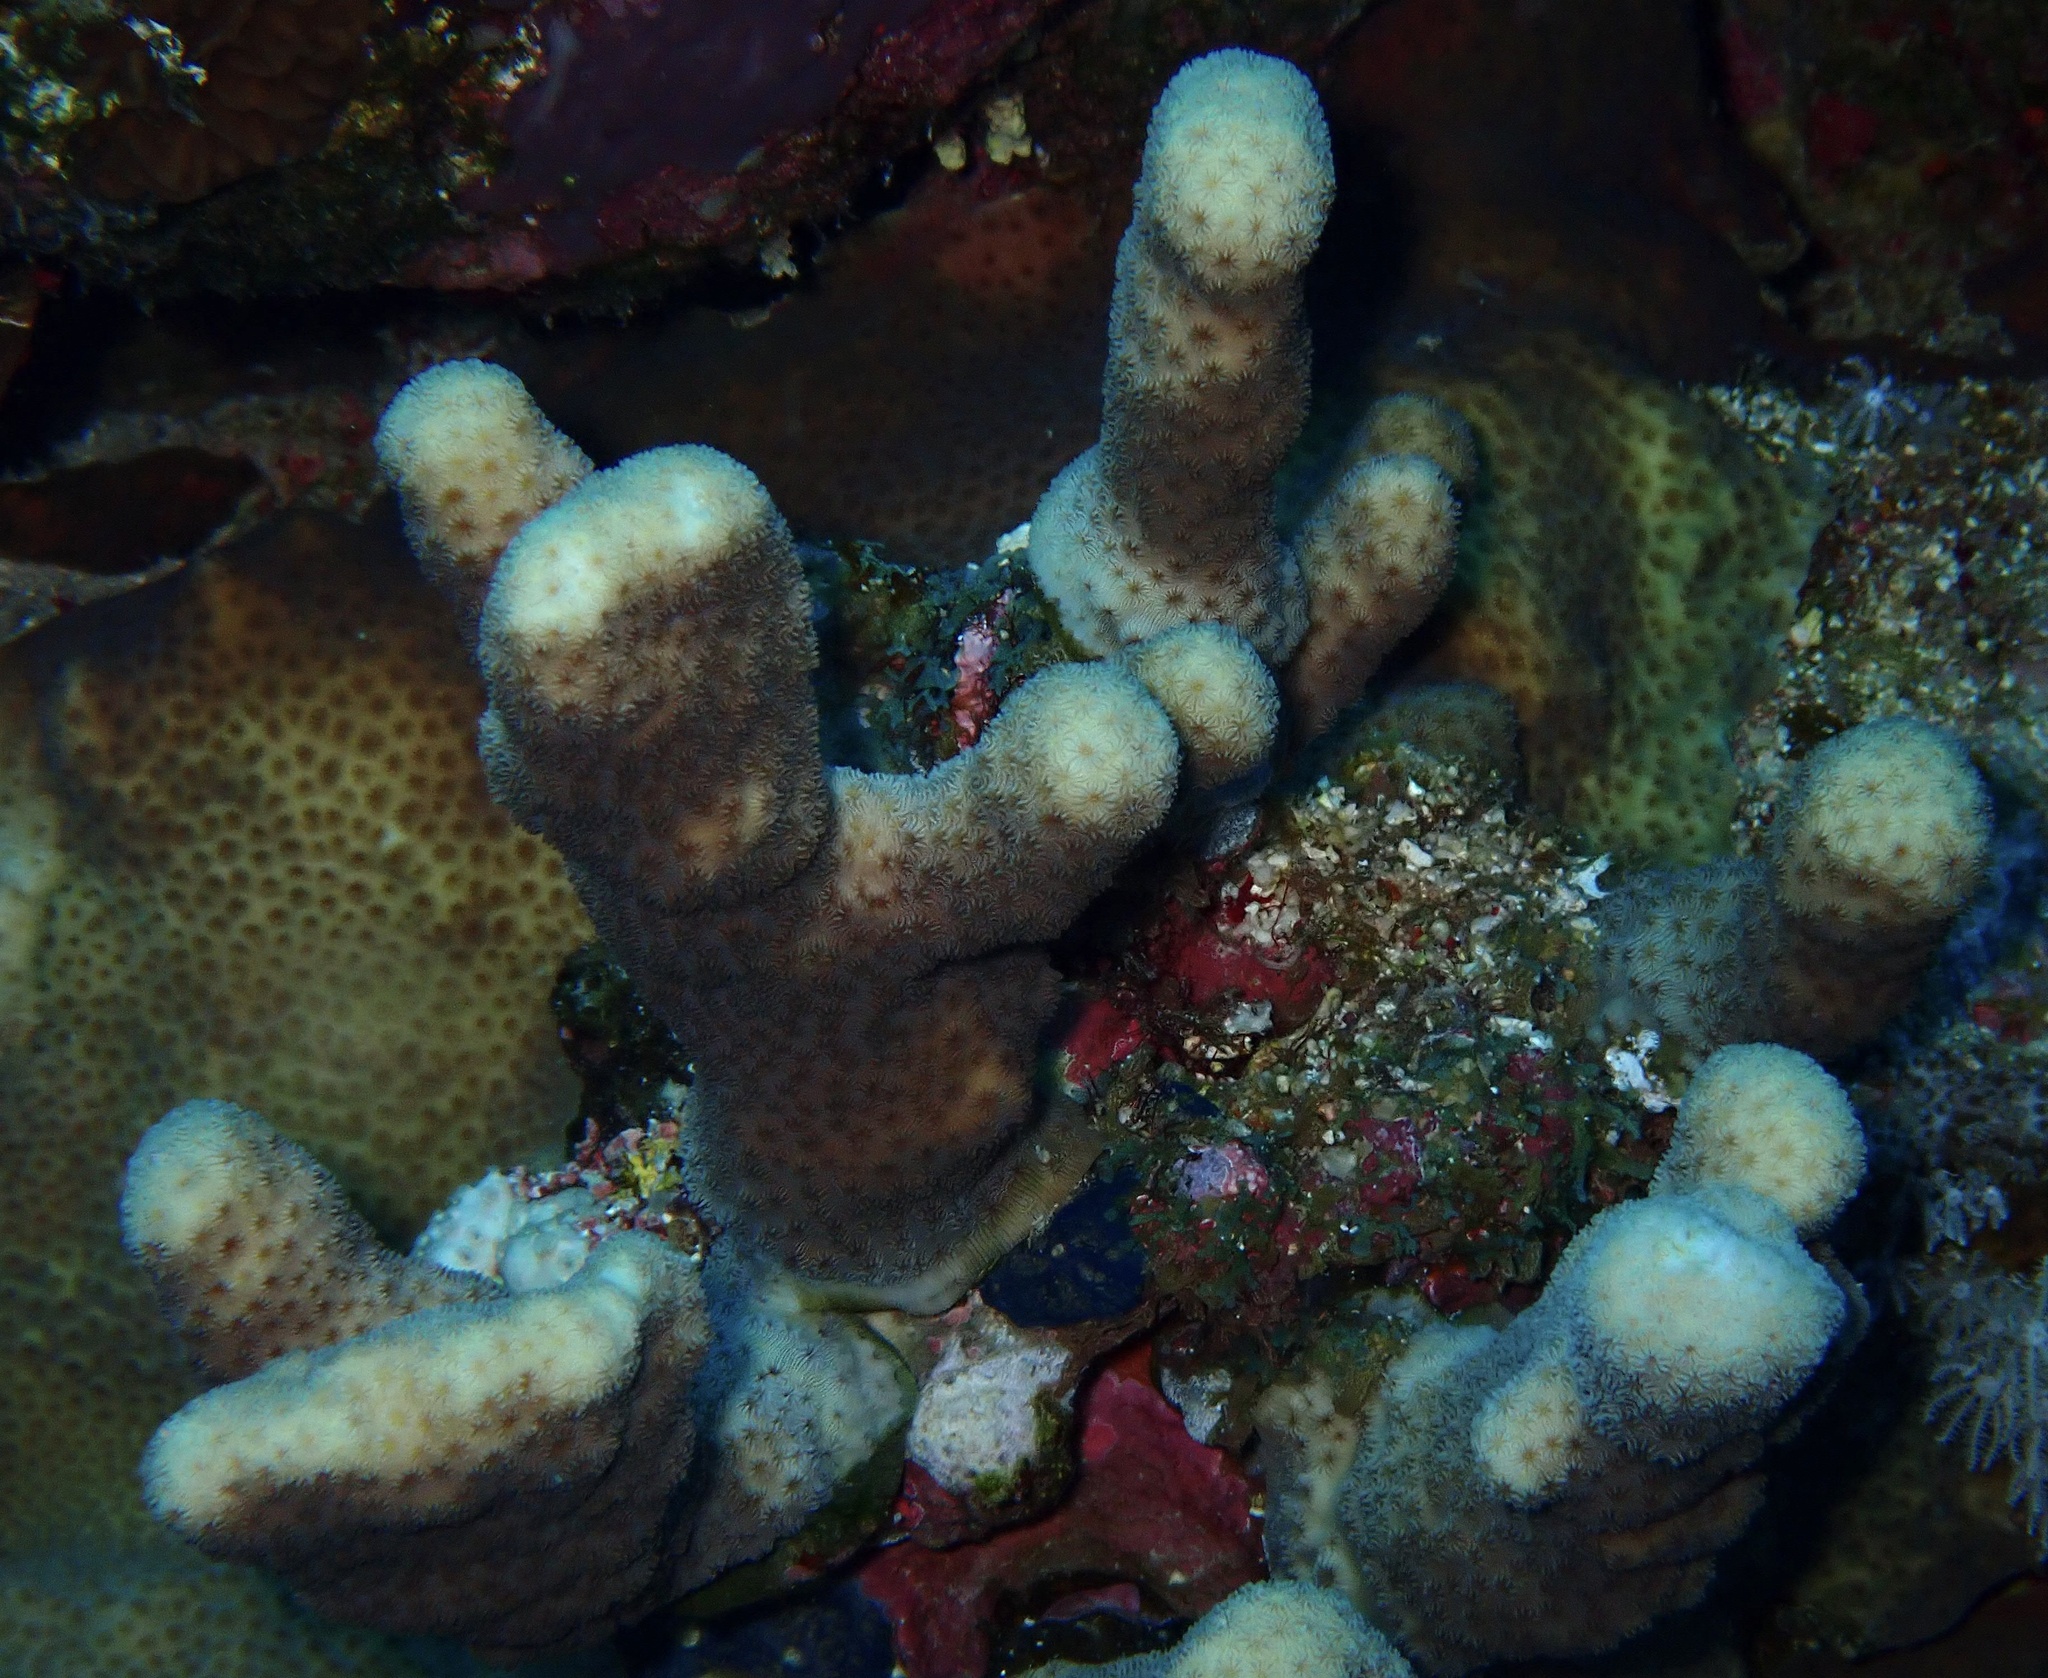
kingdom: Animalia
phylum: Cnidaria
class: Anthozoa
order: Scleractinia
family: Agariciidae
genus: Pavona
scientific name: Pavona maldivensis
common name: Leaf coral
